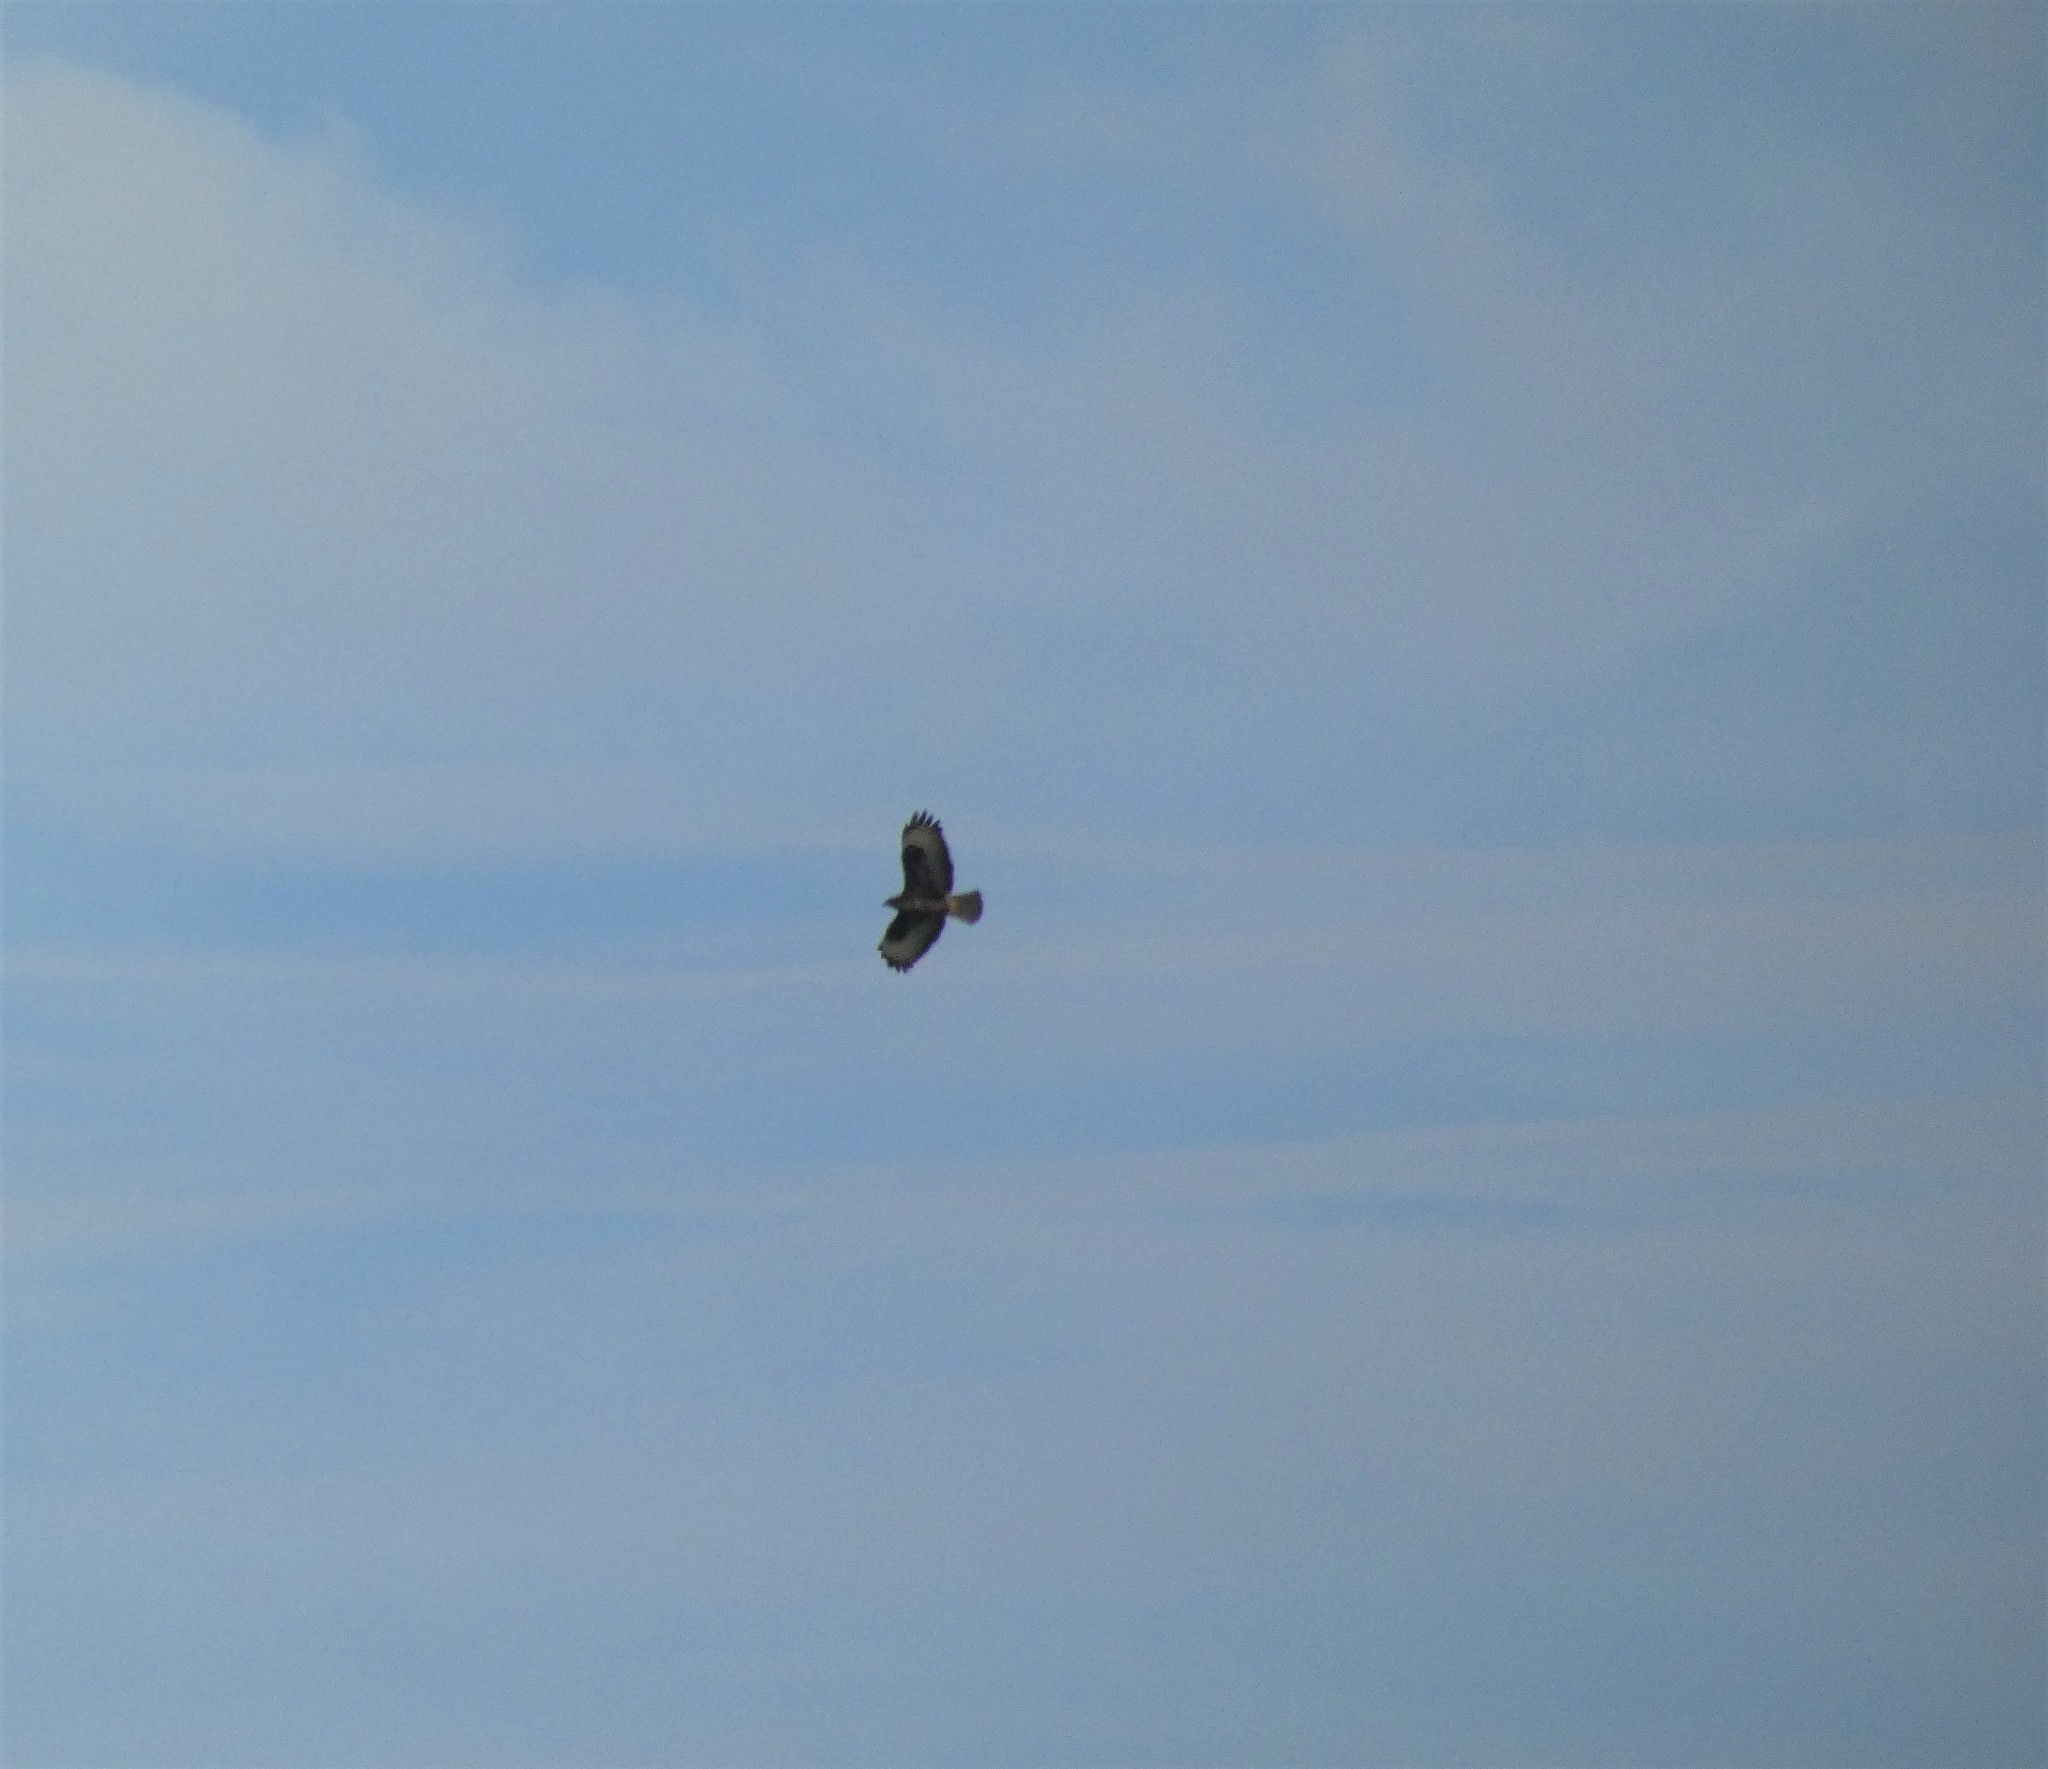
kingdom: Animalia
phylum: Chordata
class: Aves
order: Accipitriformes
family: Accipitridae
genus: Buteo
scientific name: Buteo buteo
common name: Common buzzard
